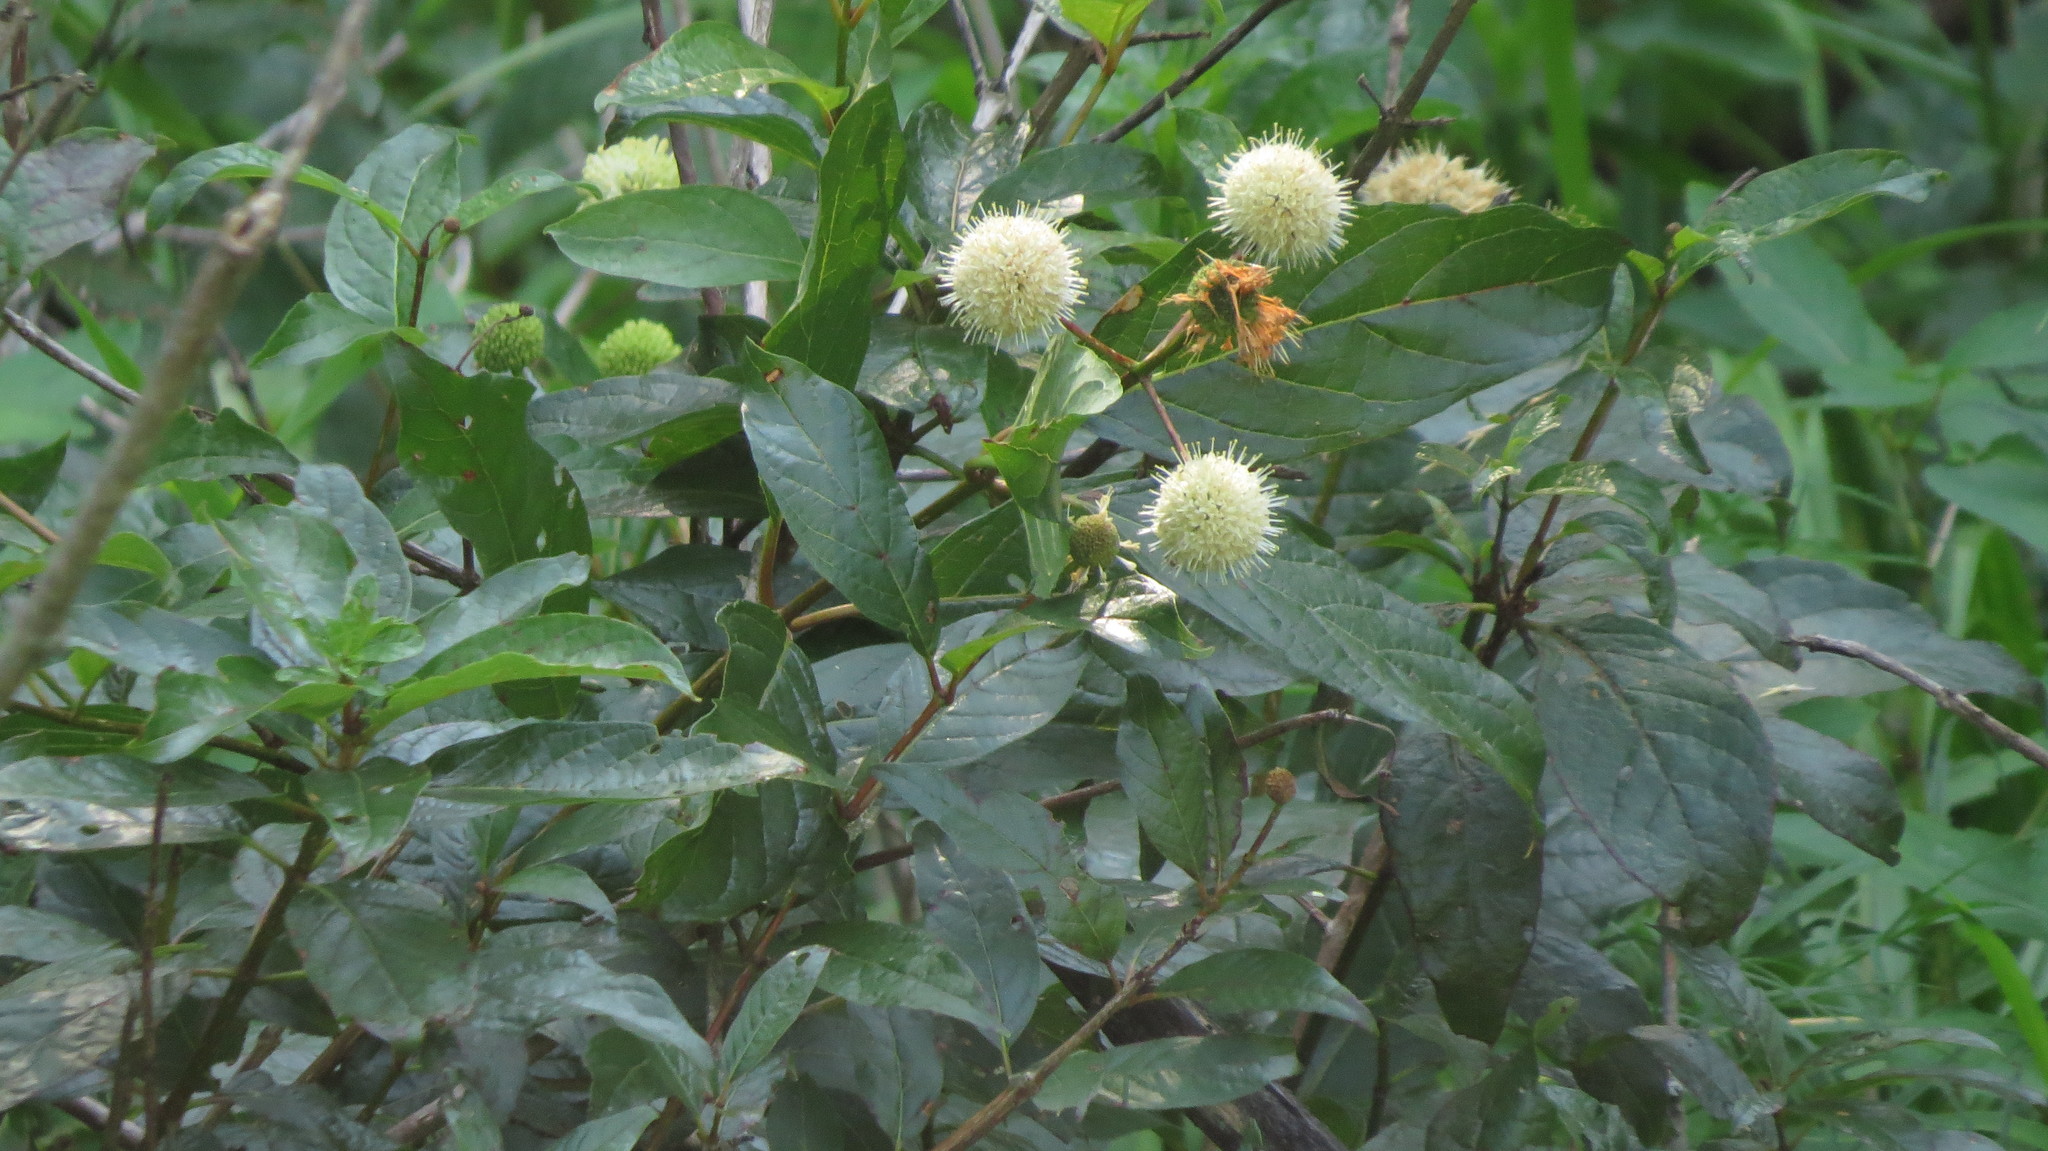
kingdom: Plantae
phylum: Tracheophyta
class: Magnoliopsida
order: Gentianales
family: Rubiaceae
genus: Cephalanthus
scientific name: Cephalanthus occidentalis
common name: Button-willow
